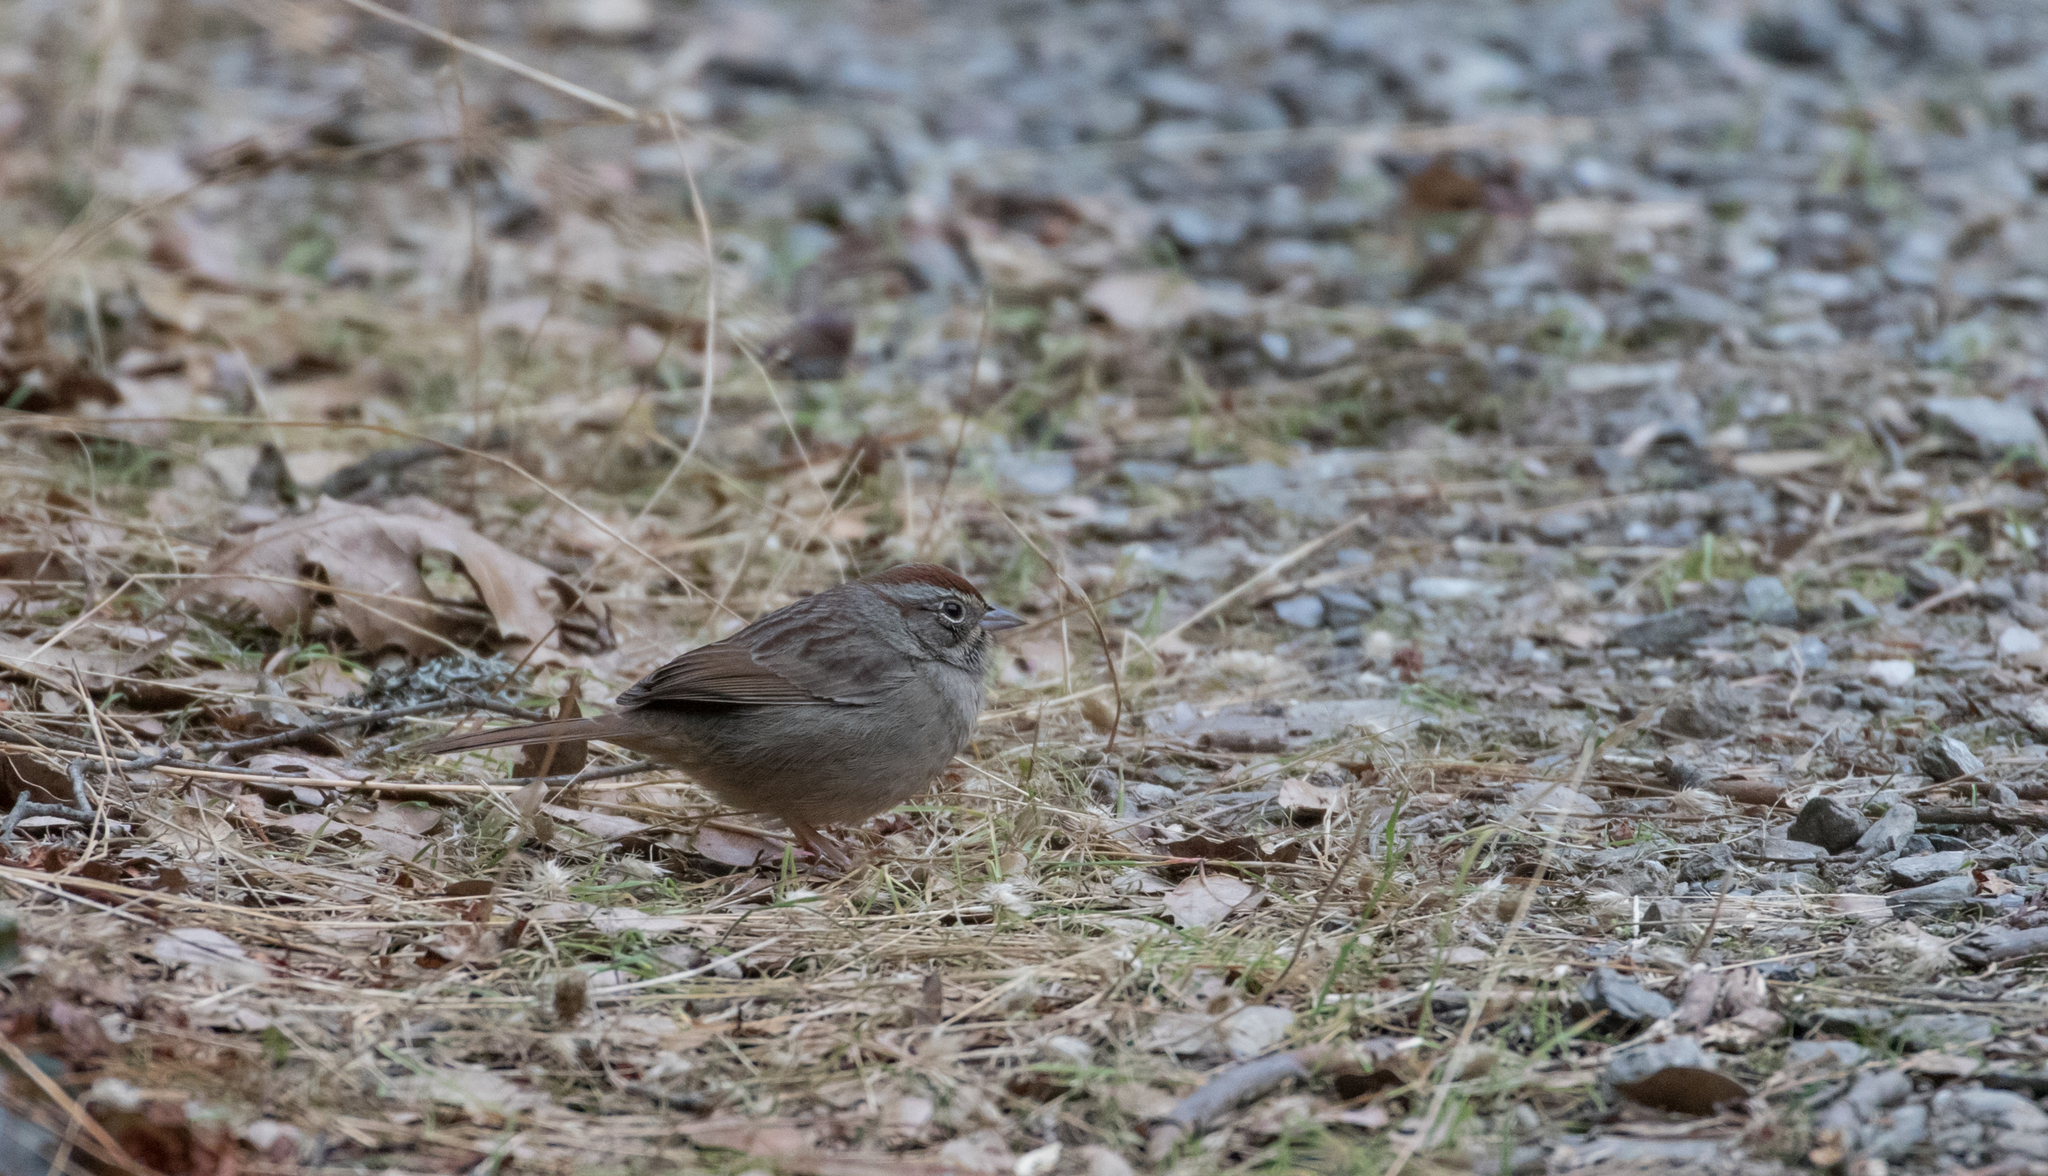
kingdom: Animalia
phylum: Chordata
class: Aves
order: Passeriformes
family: Passerellidae
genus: Aimophila
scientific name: Aimophila ruficeps
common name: Rufous-crowned sparrow
